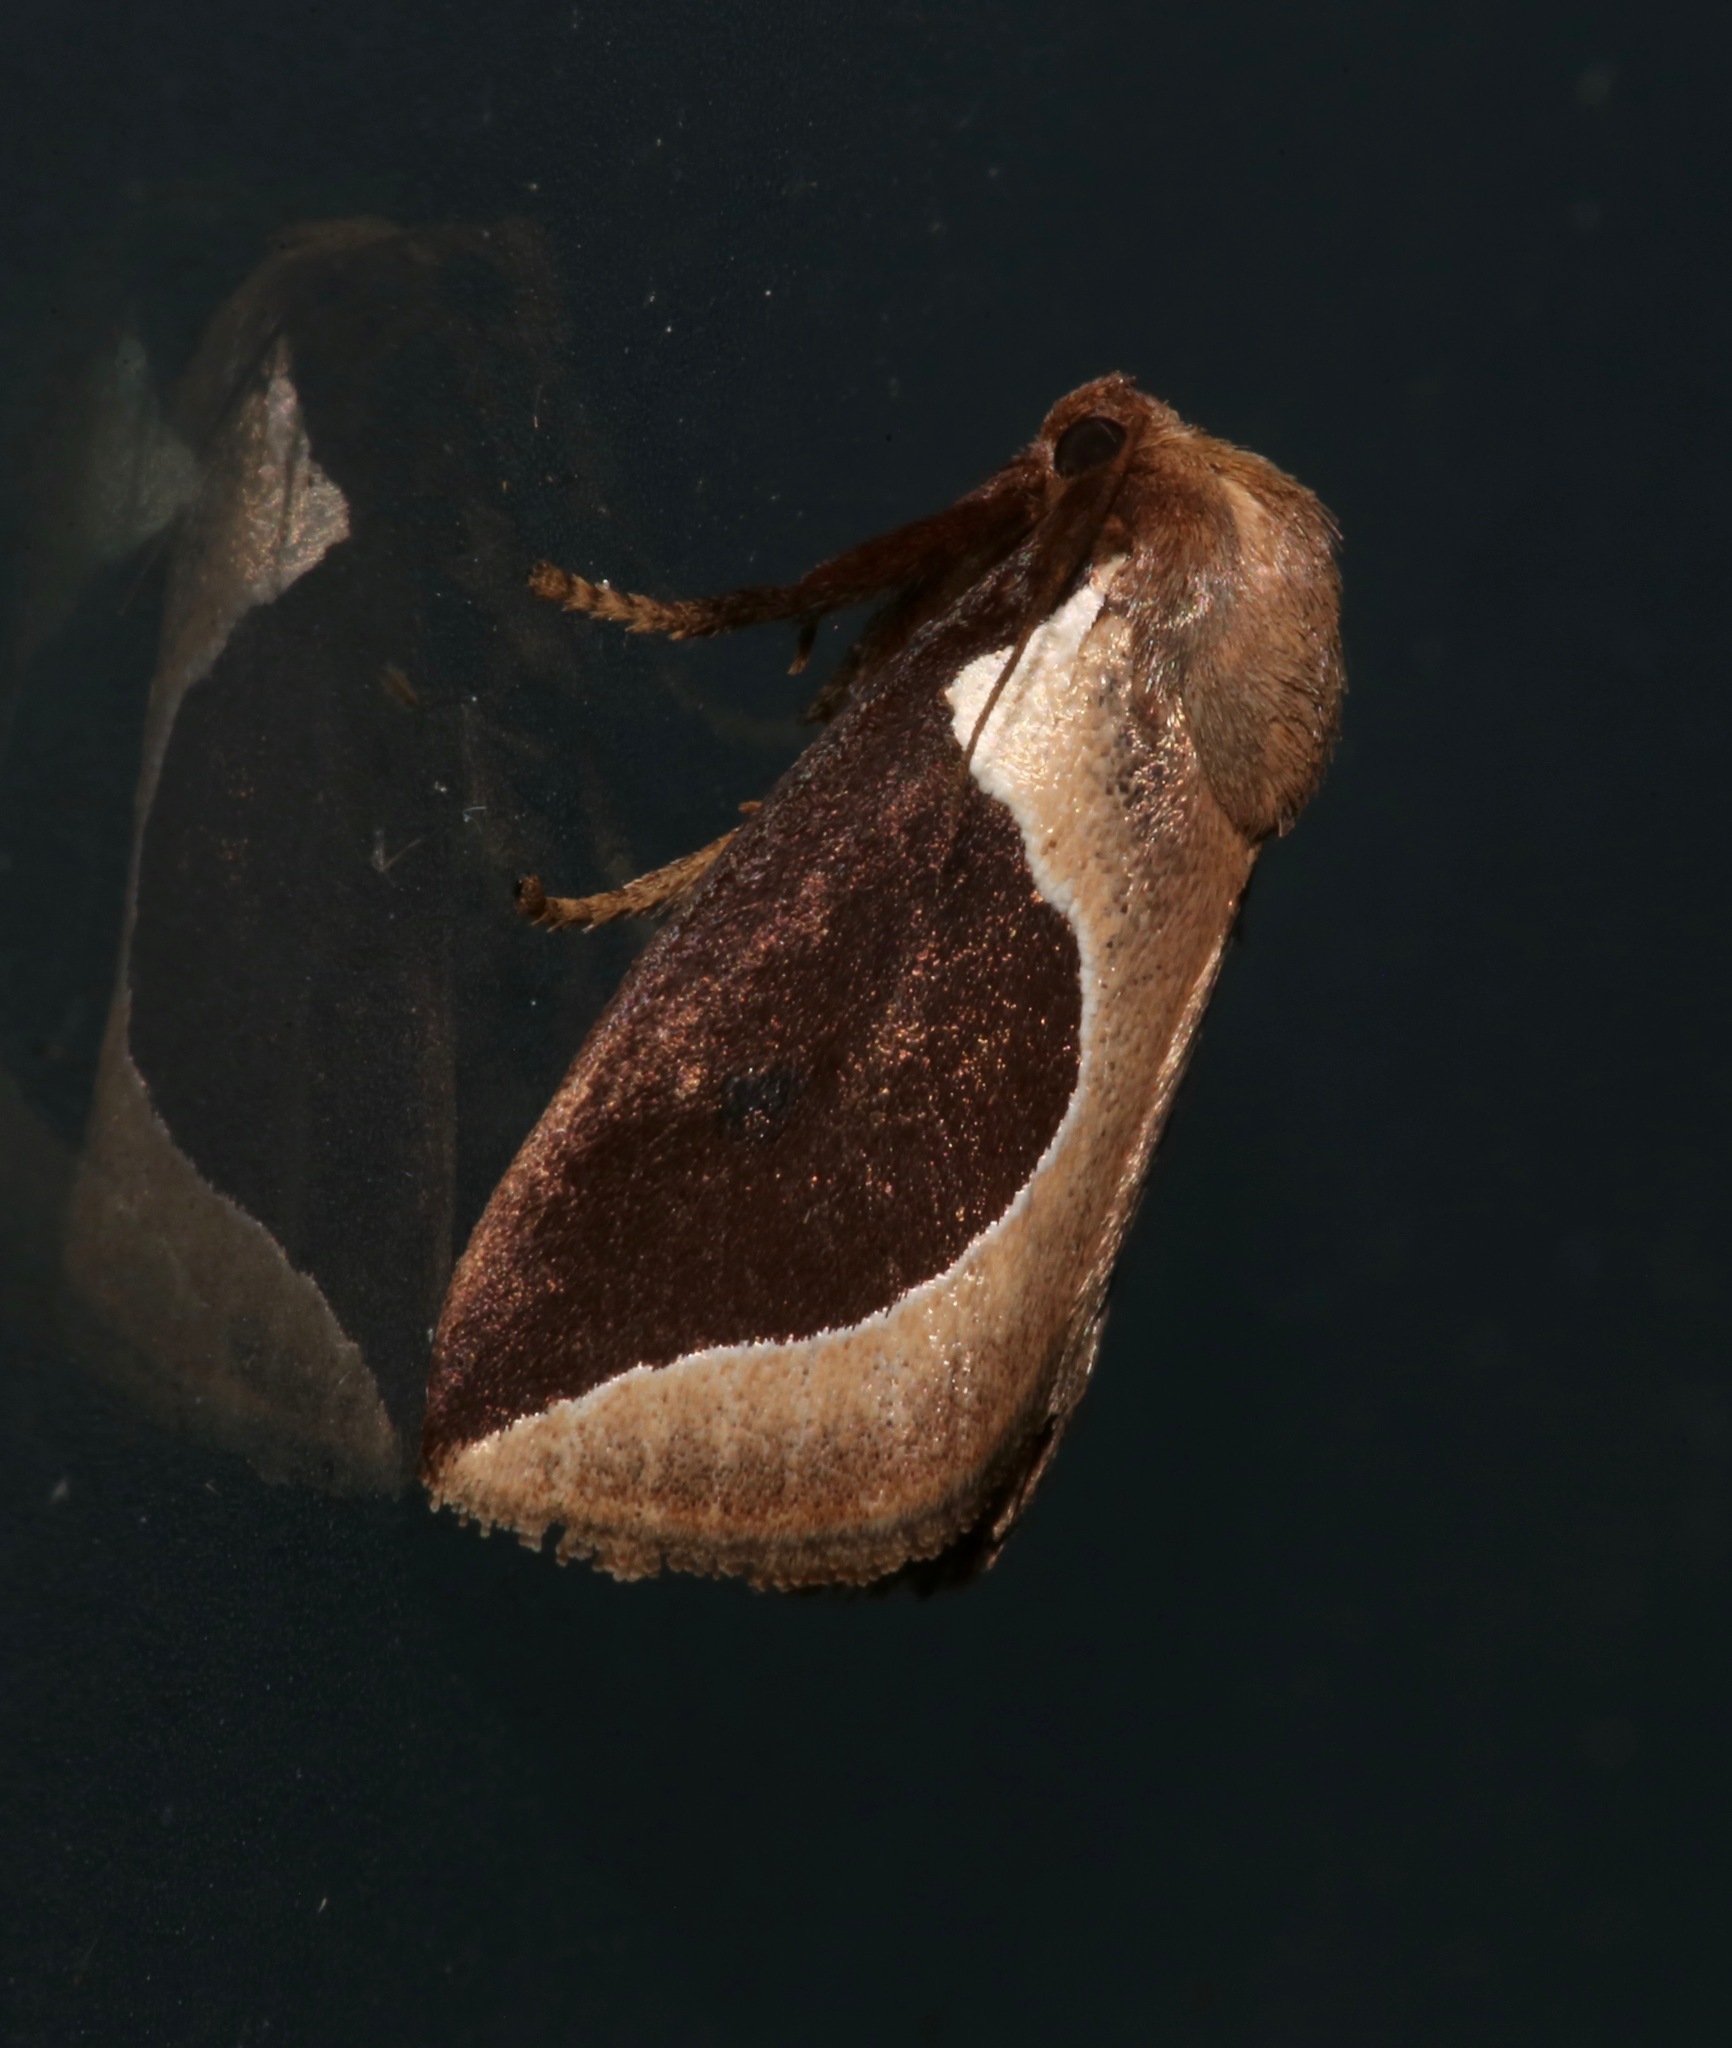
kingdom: Animalia
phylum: Arthropoda
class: Insecta
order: Lepidoptera
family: Limacodidae
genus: Prolimacodes
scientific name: Prolimacodes badia
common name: Skiff moth
